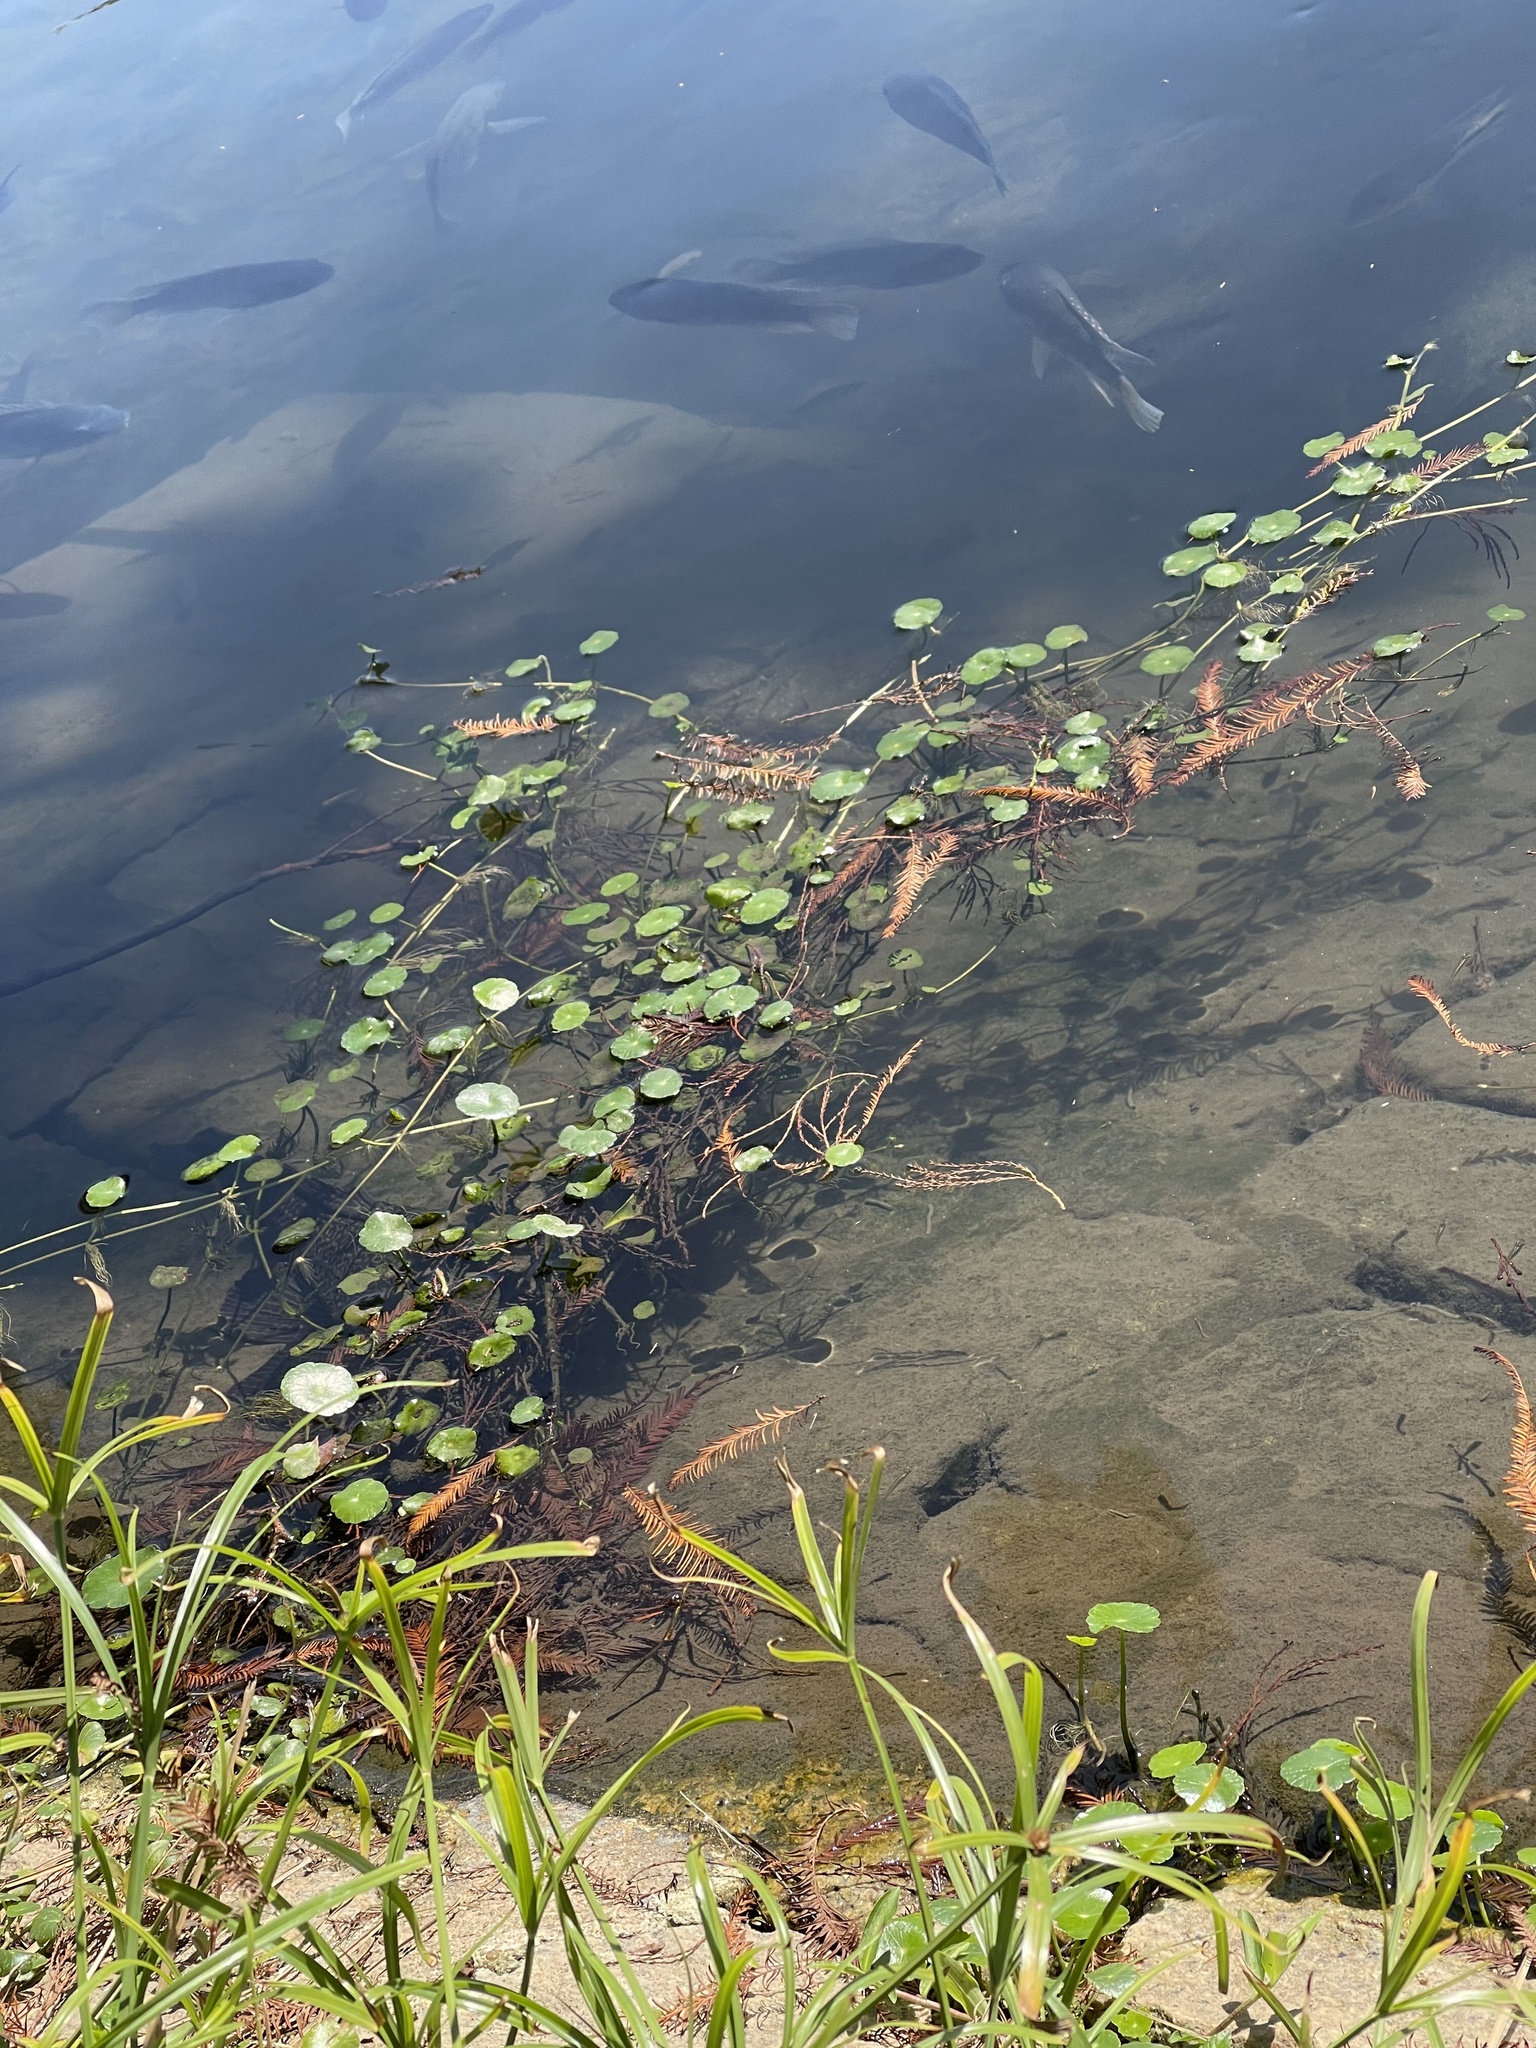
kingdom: Plantae
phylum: Tracheophyta
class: Magnoliopsida
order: Apiales
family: Araliaceae
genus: Hydrocotyle
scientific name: Hydrocotyle verticillata
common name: Whorled marshpennywort
